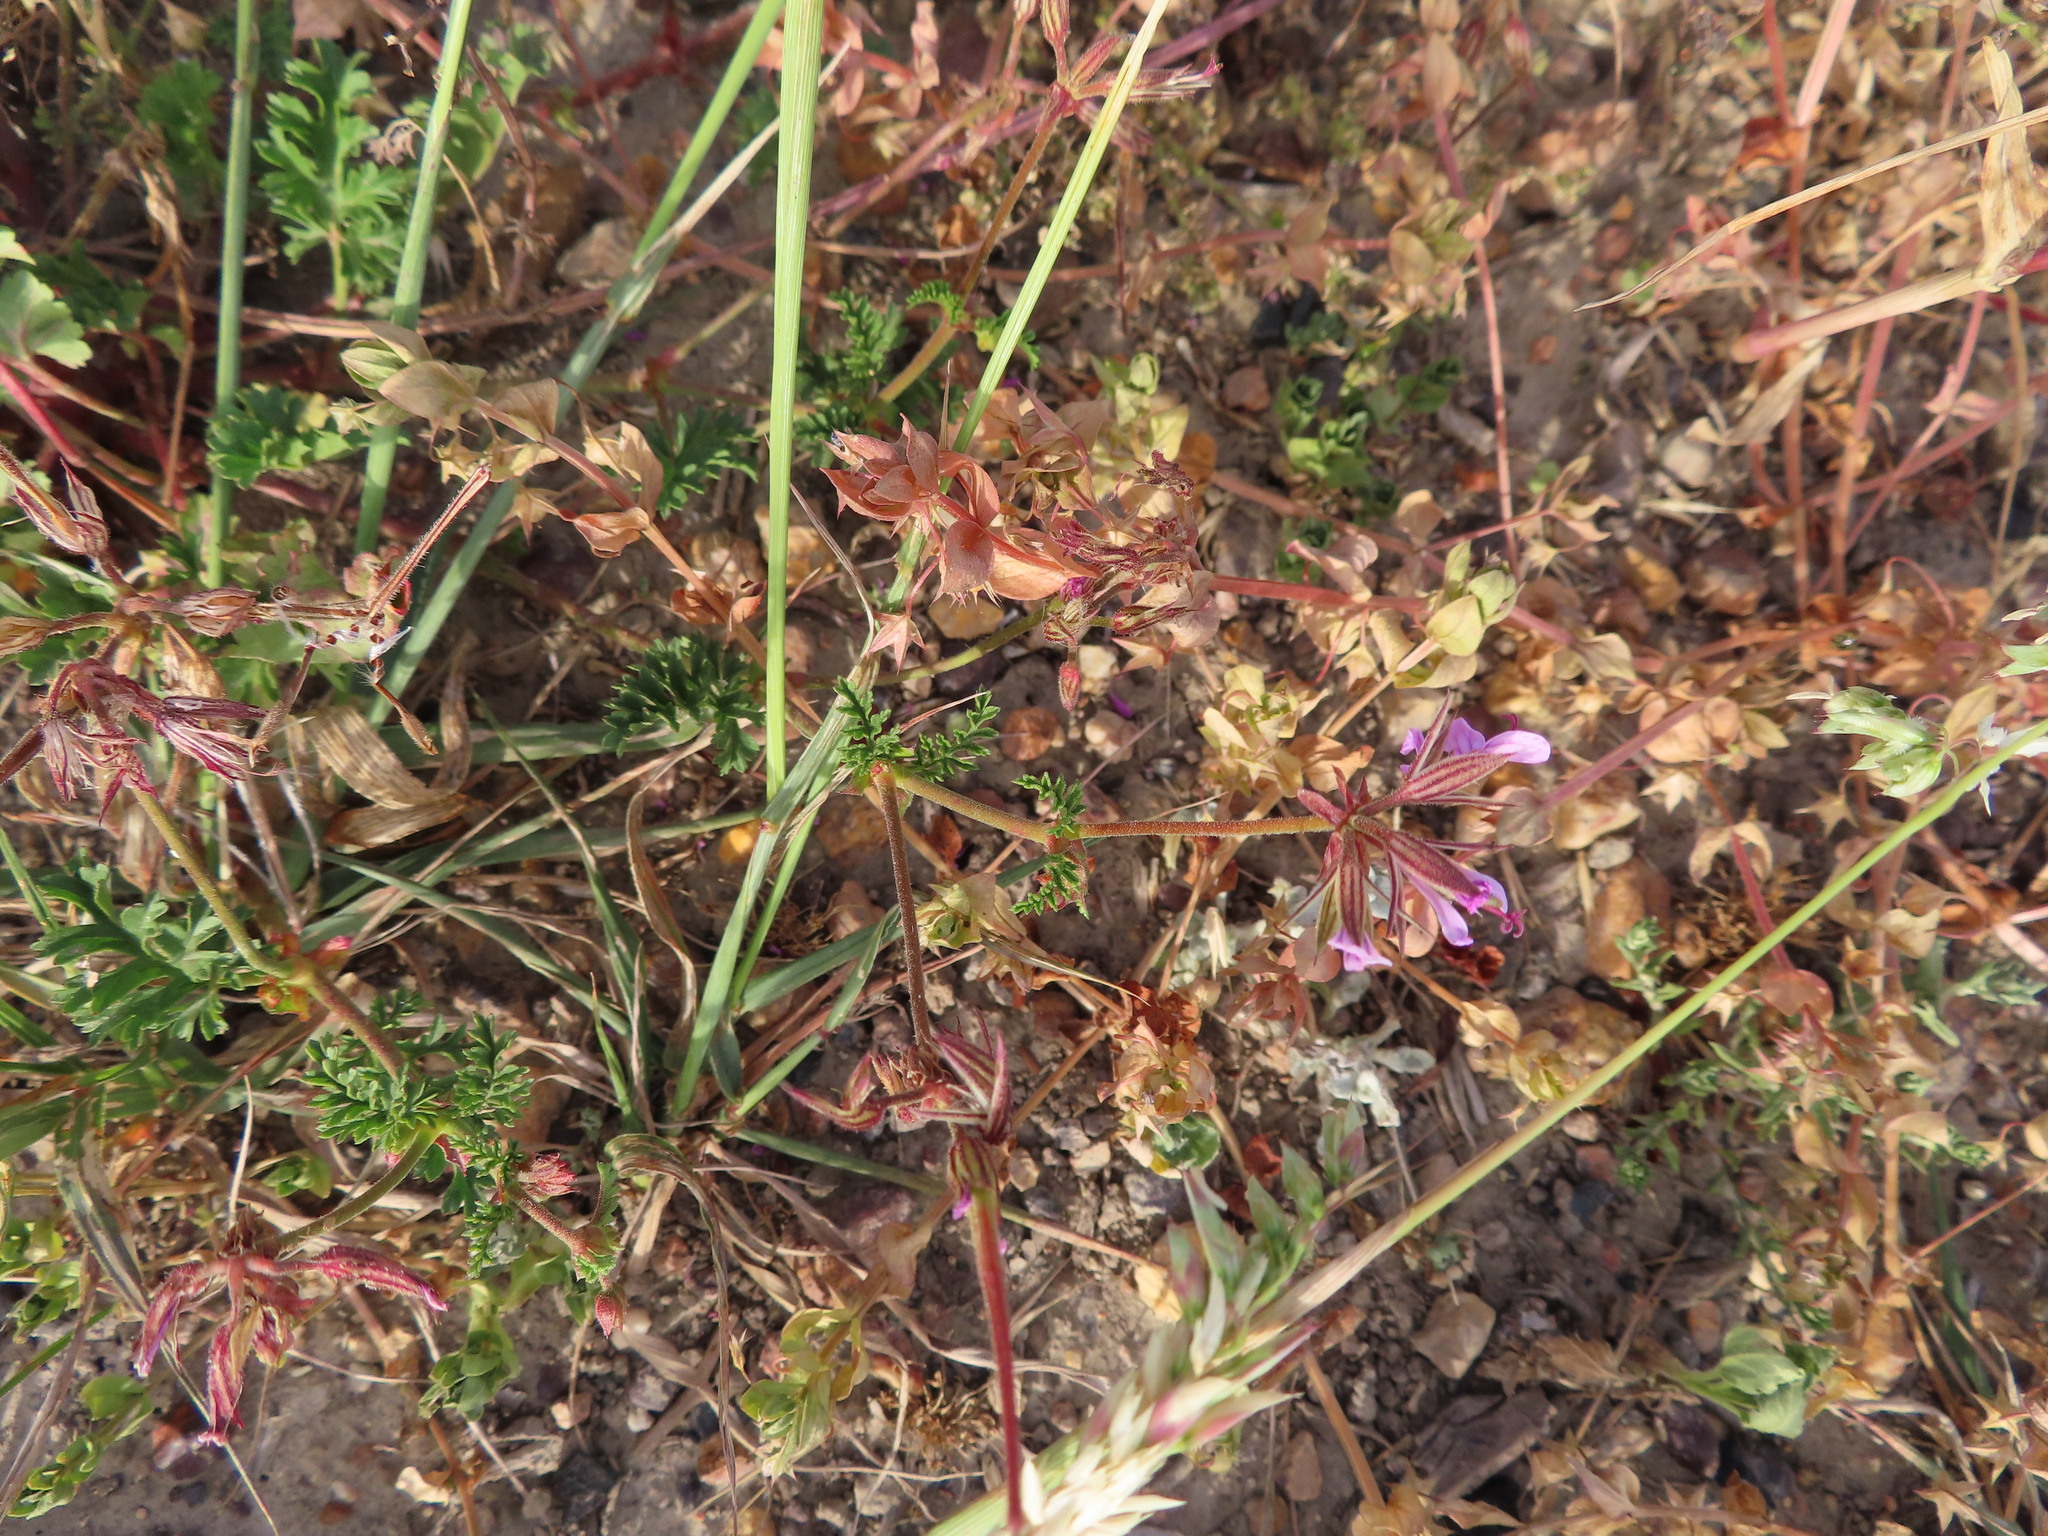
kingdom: Plantae
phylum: Tracheophyta
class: Magnoliopsida
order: Geraniales
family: Geraniaceae
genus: Pelargonium
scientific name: Pelargonium myrrhifolium
